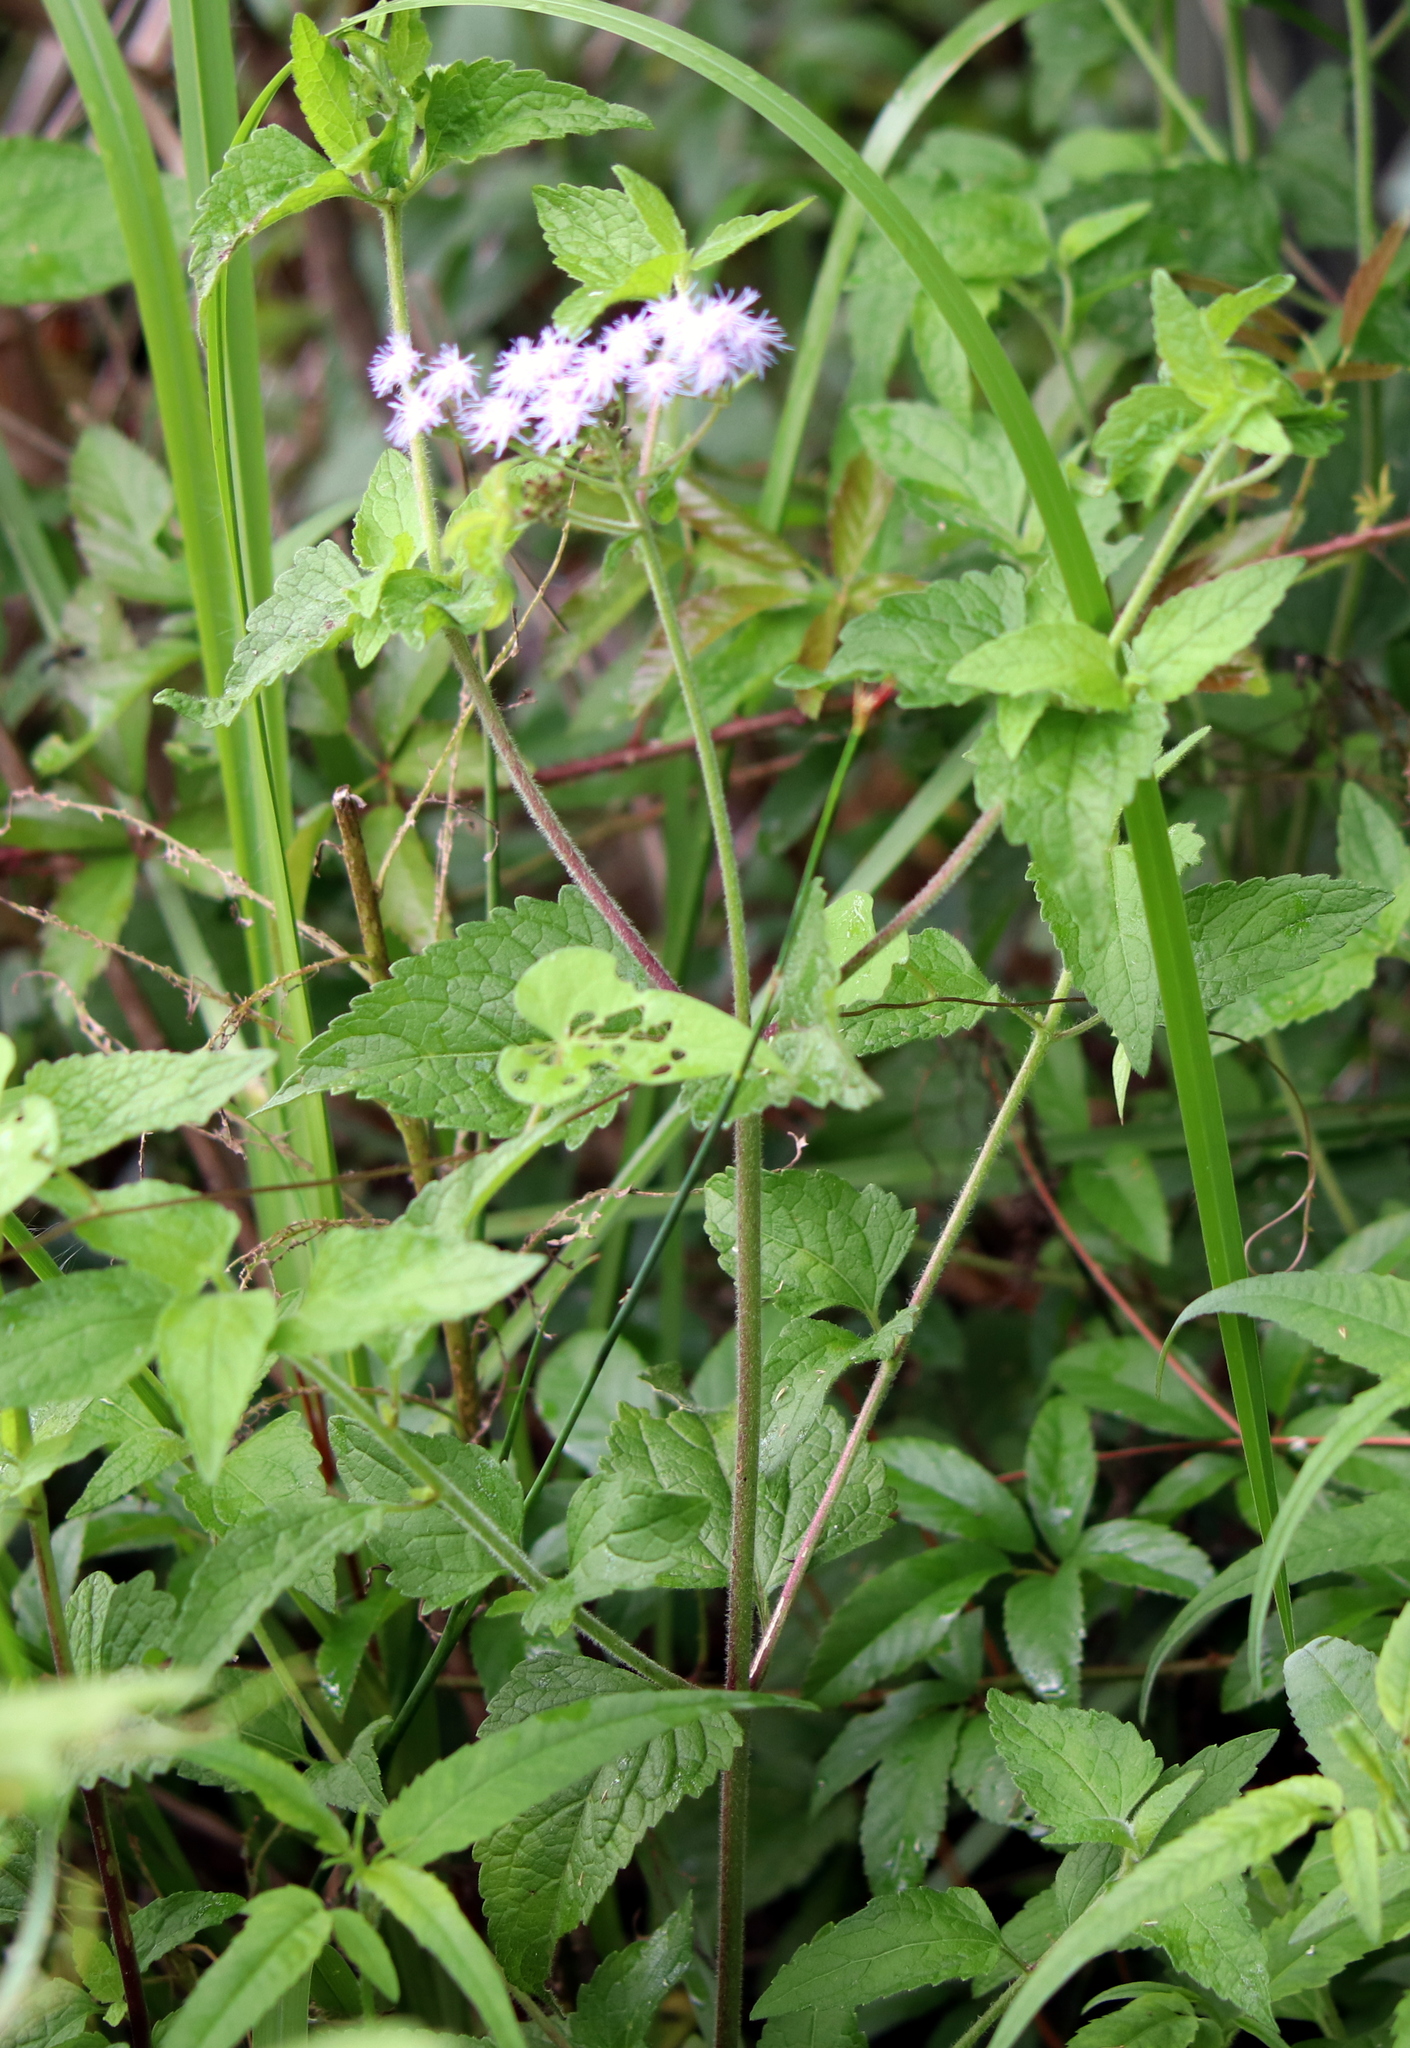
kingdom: Plantae
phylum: Tracheophyta
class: Magnoliopsida
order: Asterales
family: Asteraceae
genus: Conoclinium
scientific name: Conoclinium coelestinum
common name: Blue mistflower
